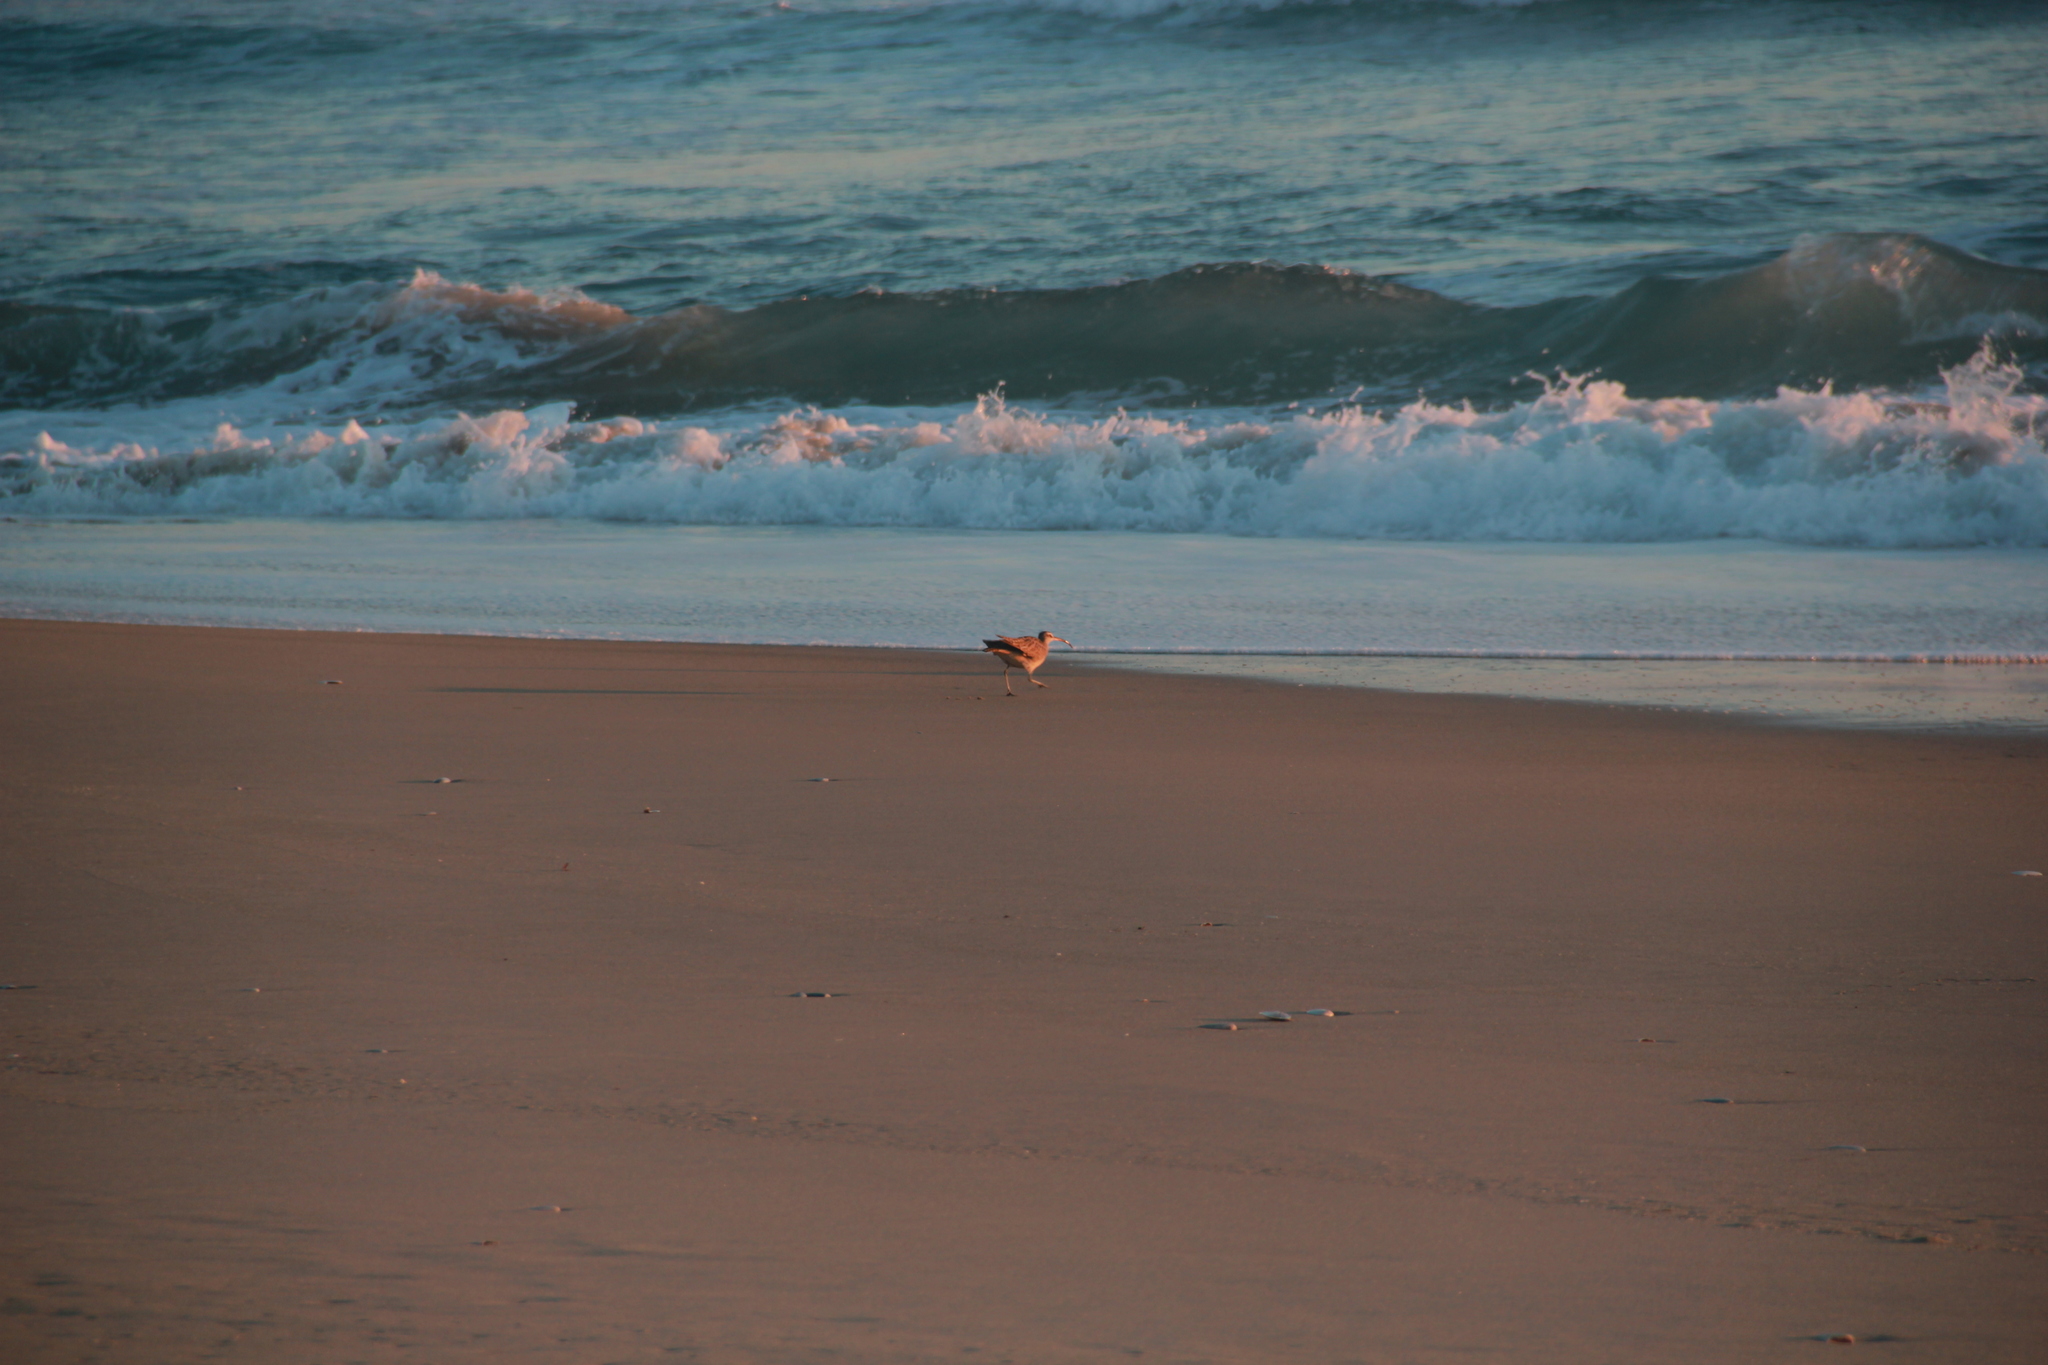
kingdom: Animalia
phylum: Chordata
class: Aves
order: Charadriiformes
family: Scolopacidae
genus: Numenius
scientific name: Numenius phaeopus
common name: Whimbrel
